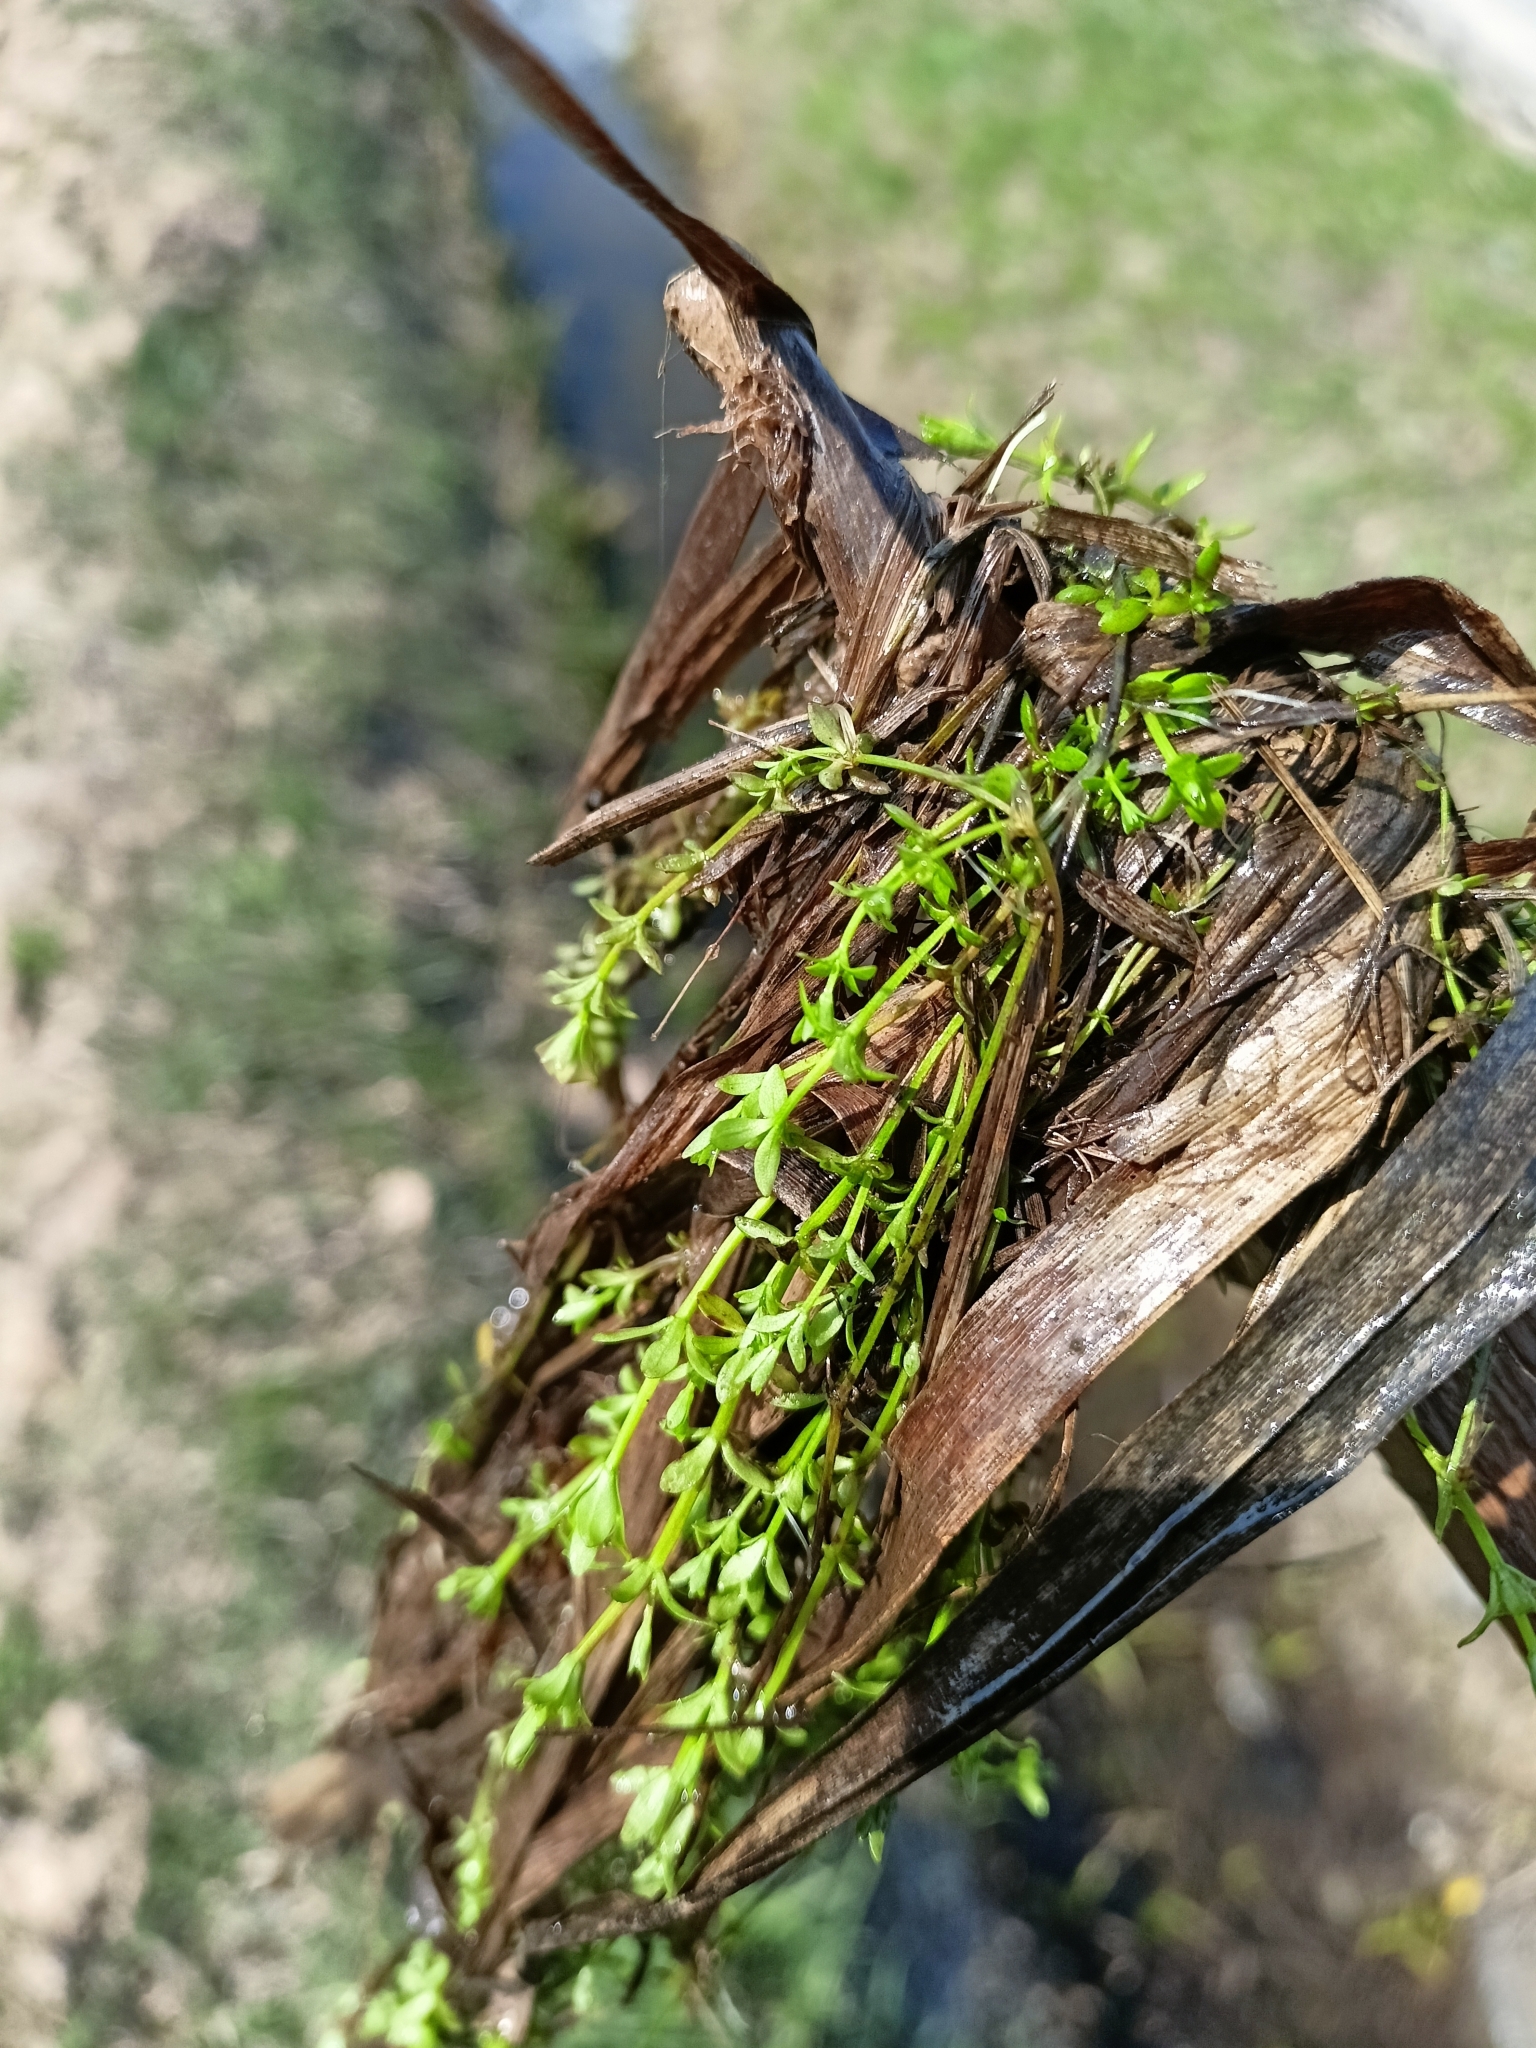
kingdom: Plantae
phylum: Tracheophyta
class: Magnoliopsida
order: Lamiales
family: Plantaginaceae
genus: Callitriche
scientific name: Callitriche
